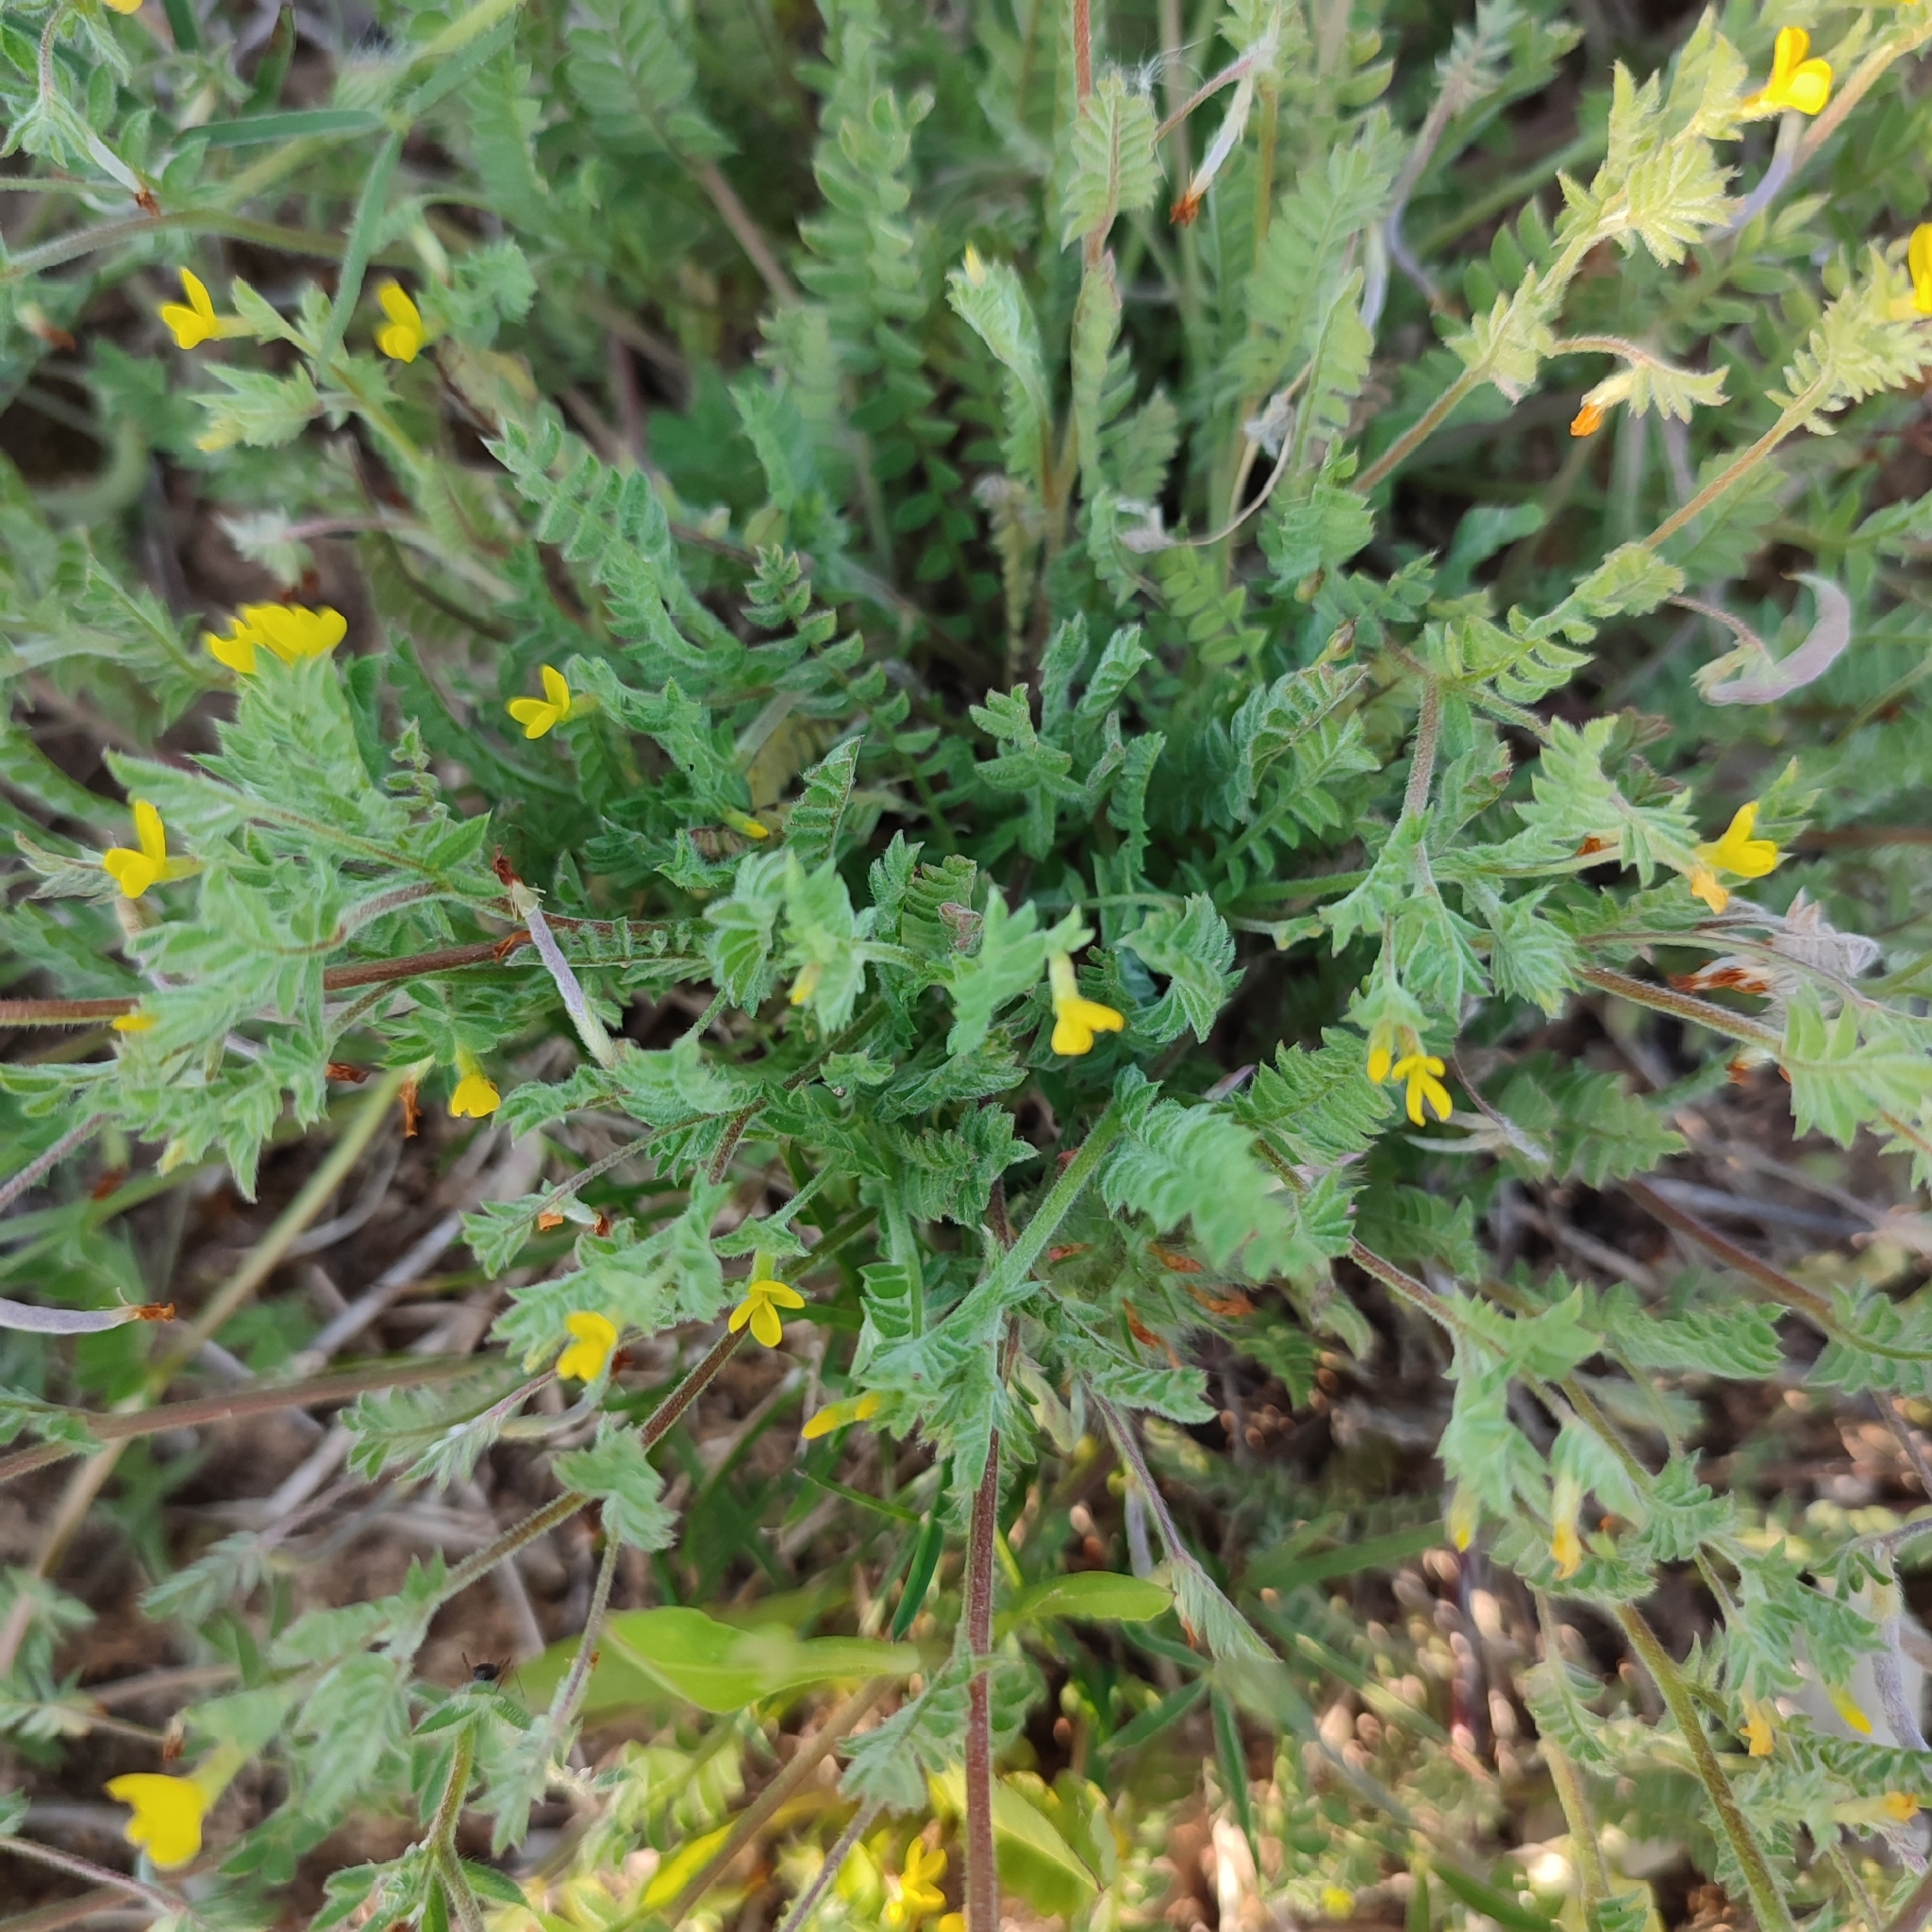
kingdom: Plantae
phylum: Tracheophyta
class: Magnoliopsida
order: Fabales
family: Fabaceae
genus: Ornithopus
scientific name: Ornithopus compressus
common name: Yellow serradella
